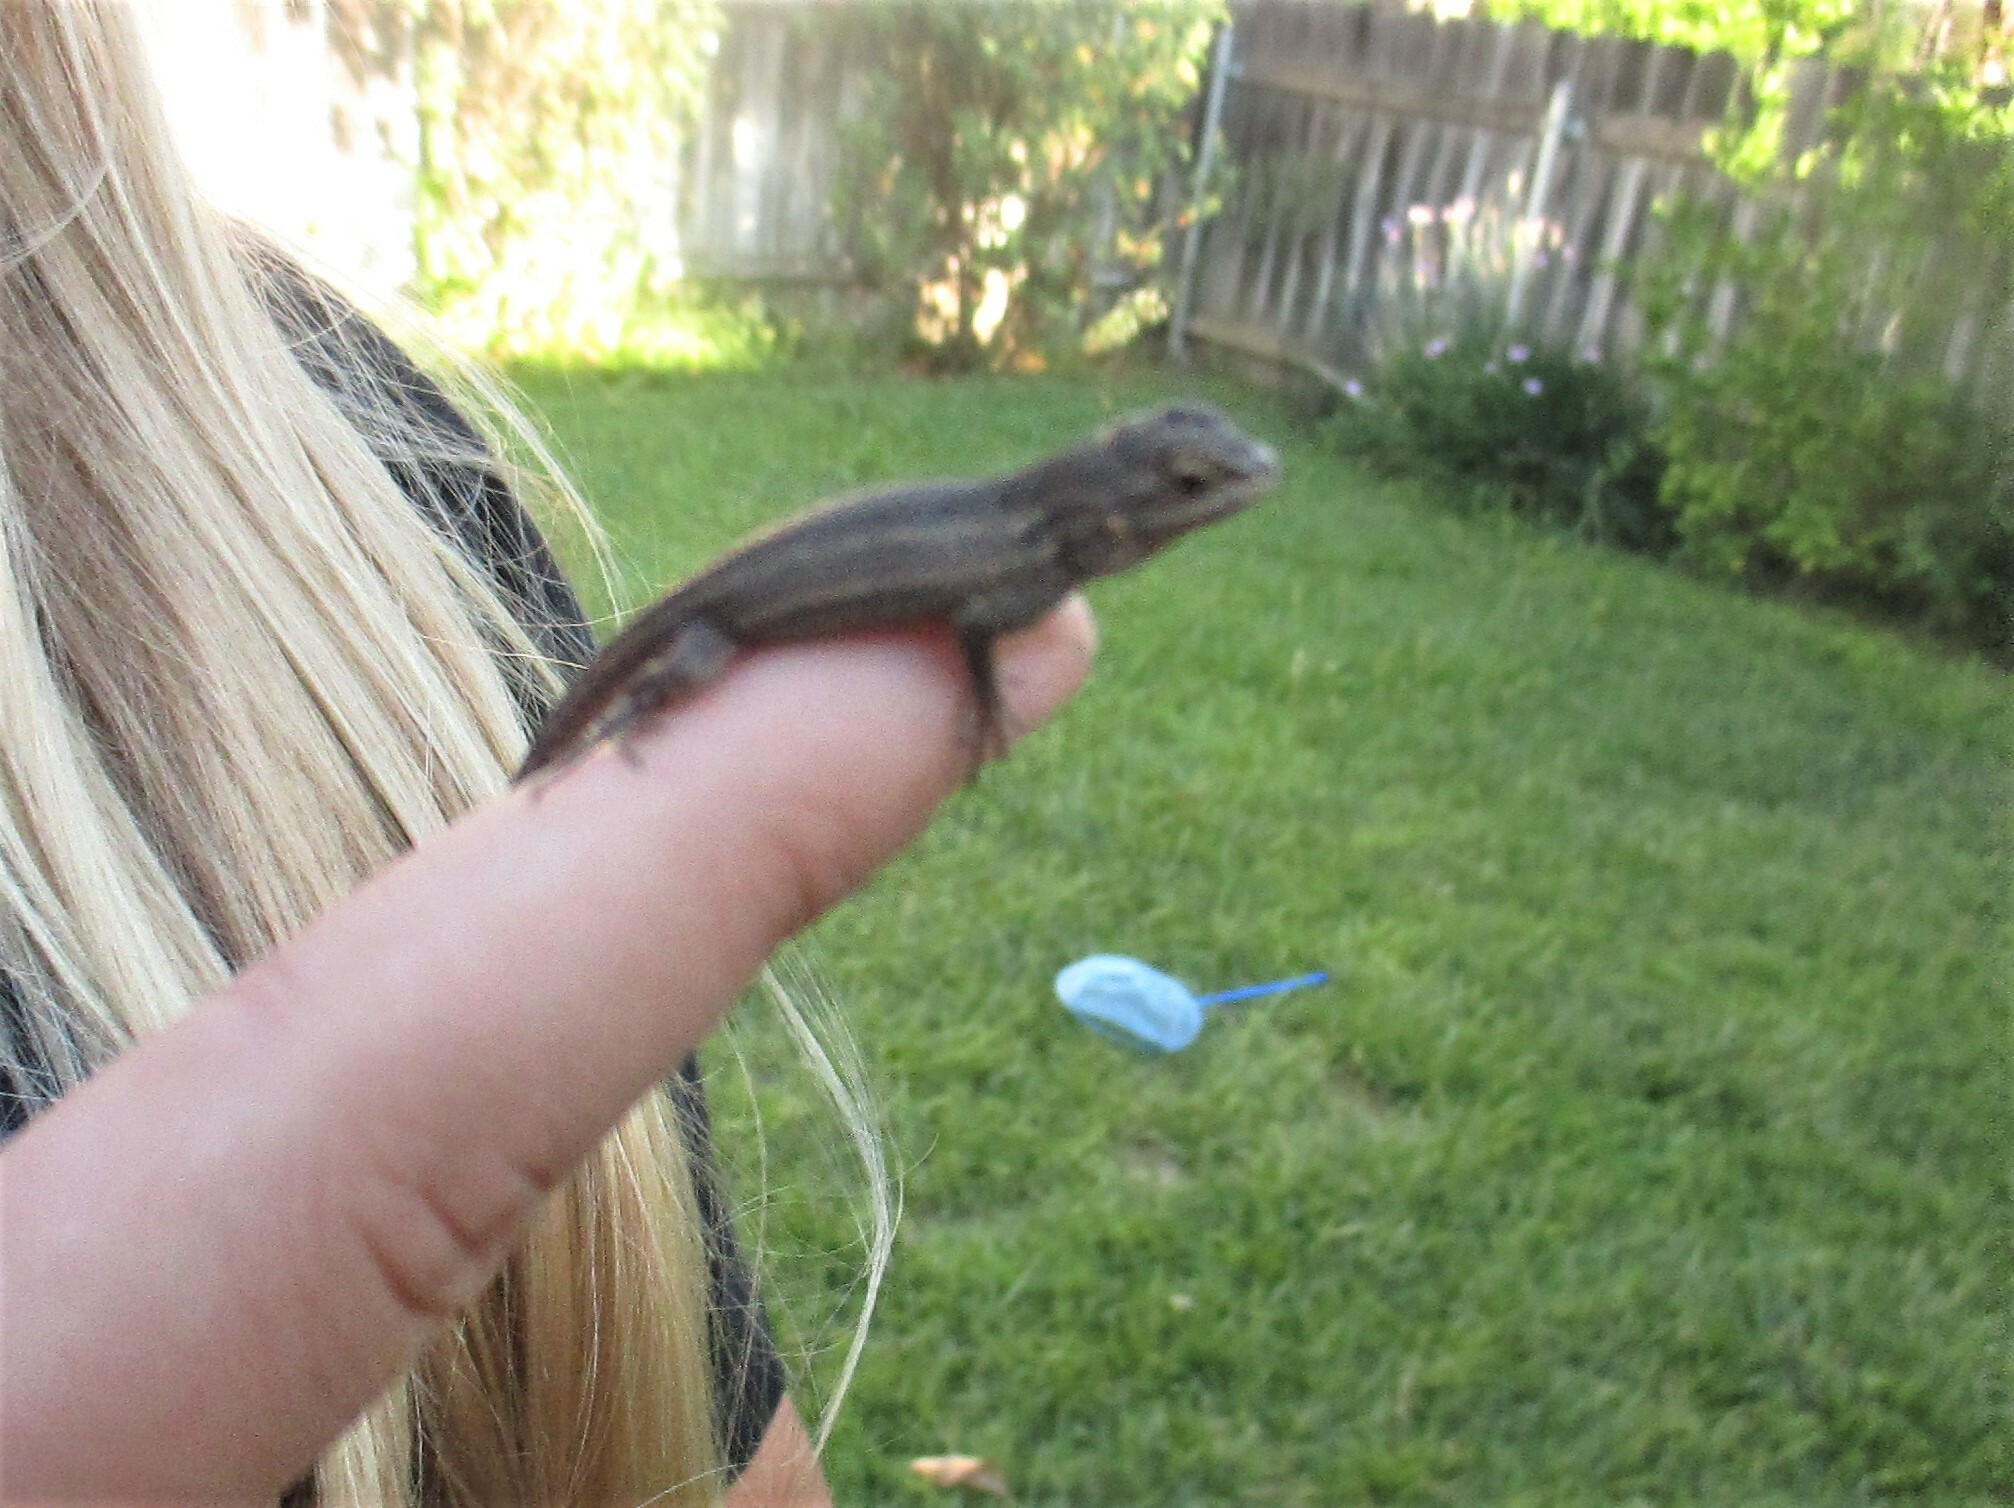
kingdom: Animalia
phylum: Chordata
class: Squamata
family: Phrynosomatidae
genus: Sceloporus
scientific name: Sceloporus occidentalis
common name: Western fence lizard
